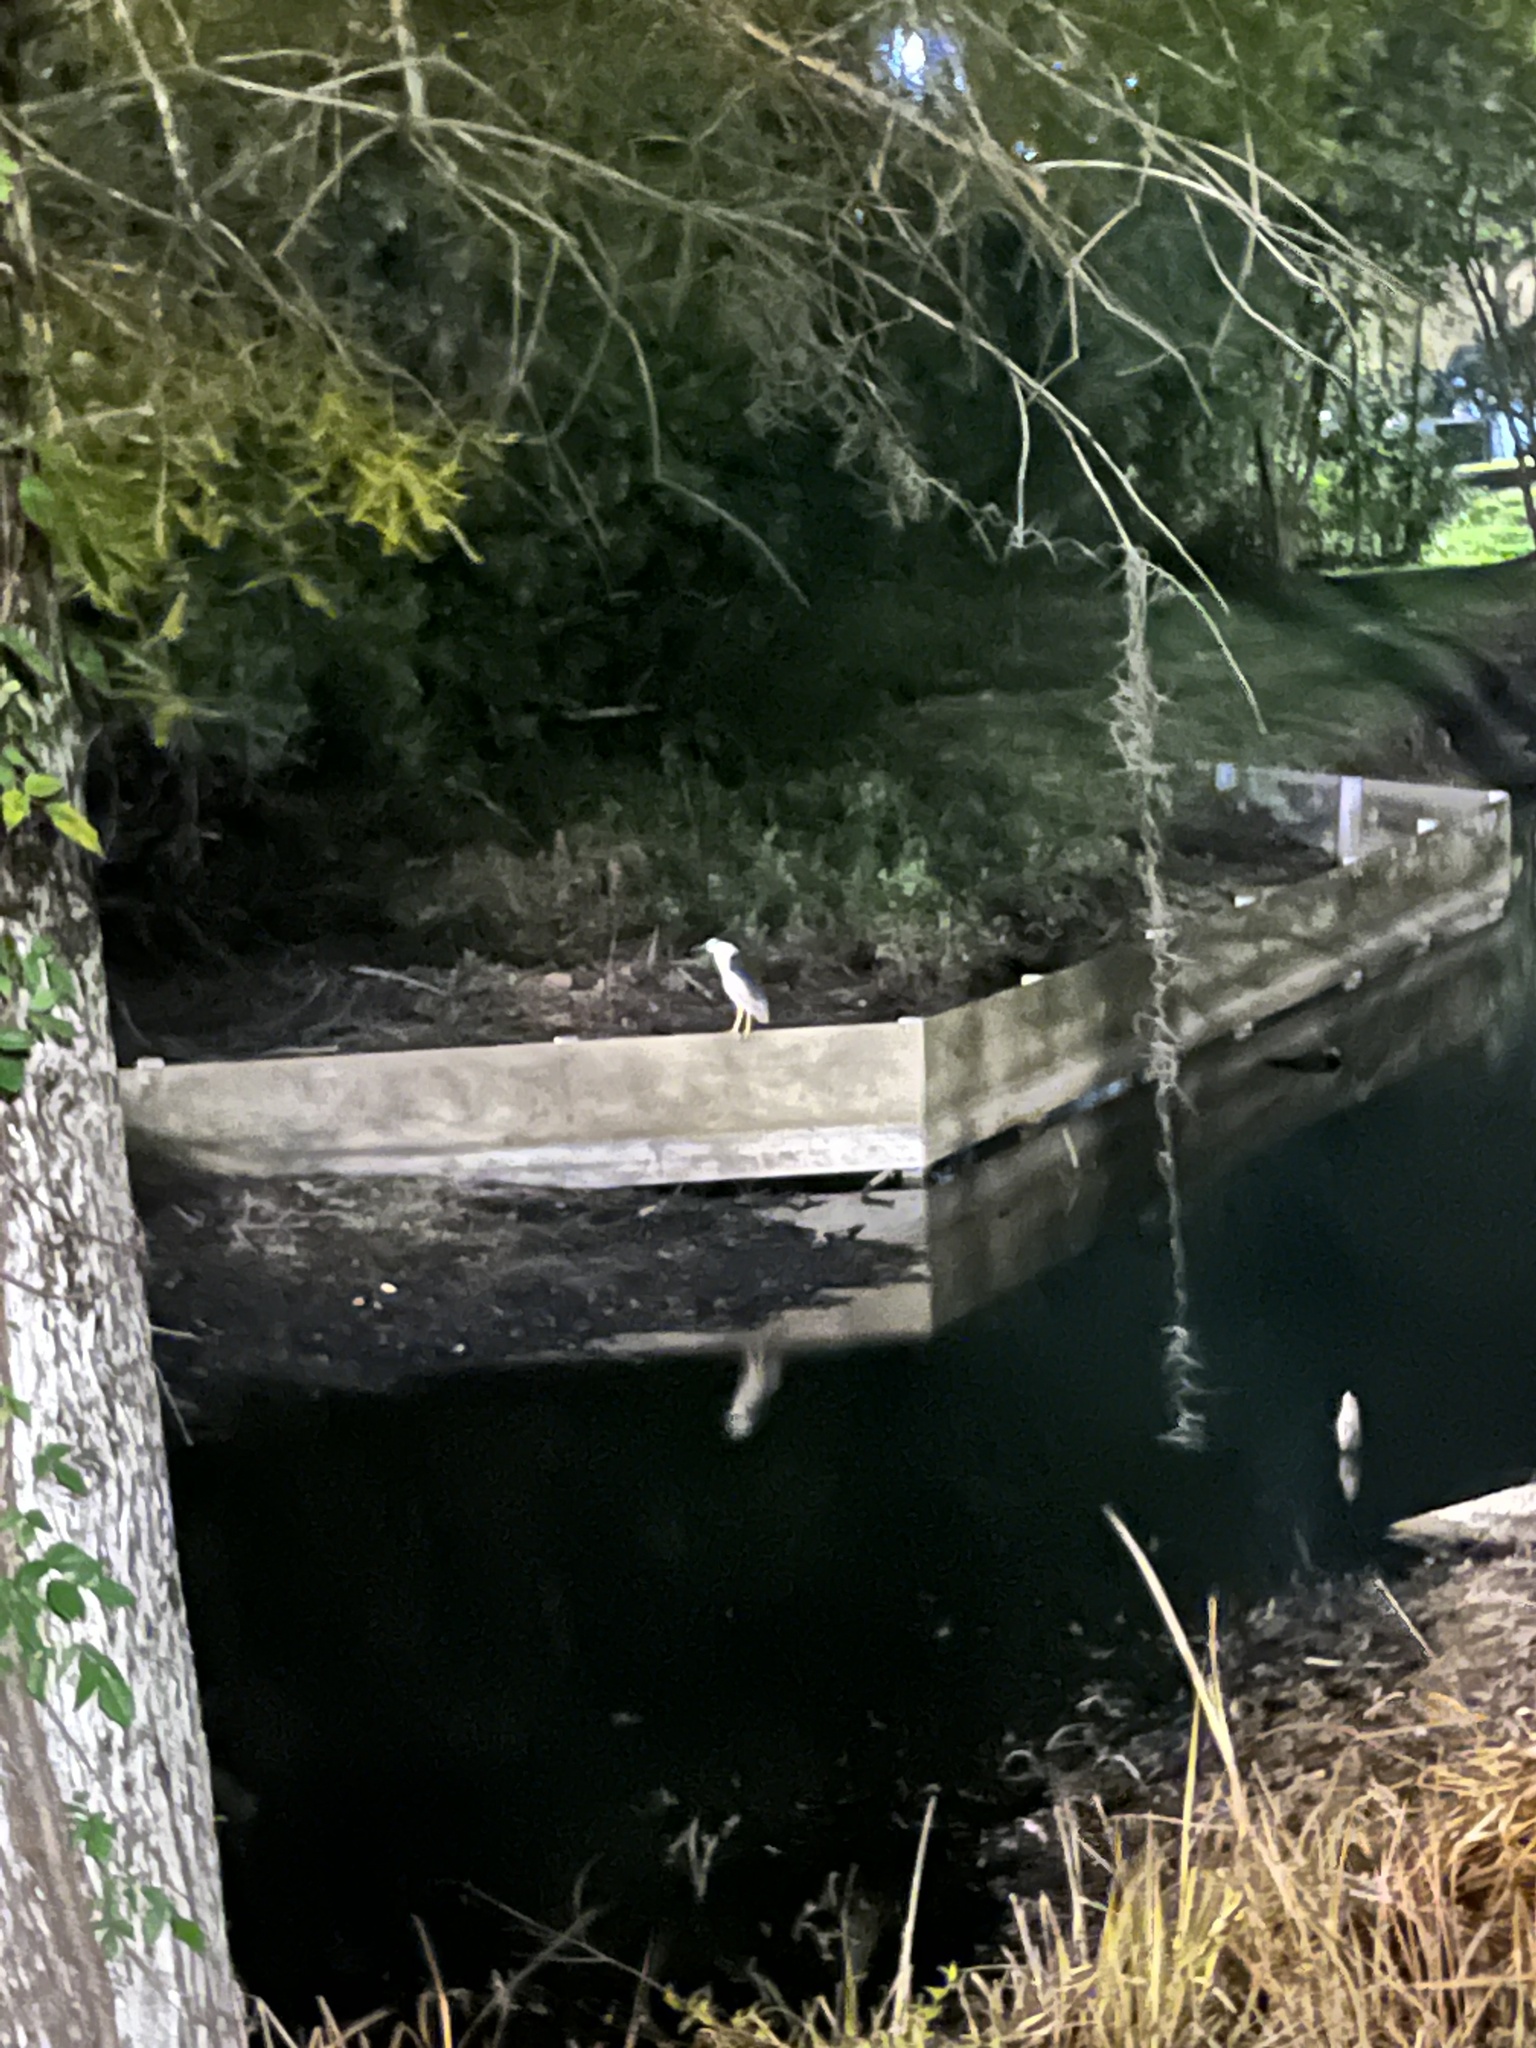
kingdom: Animalia
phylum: Chordata
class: Aves
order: Pelecaniformes
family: Ardeidae
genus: Nycticorax
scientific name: Nycticorax nycticorax
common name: Black-crowned night heron
